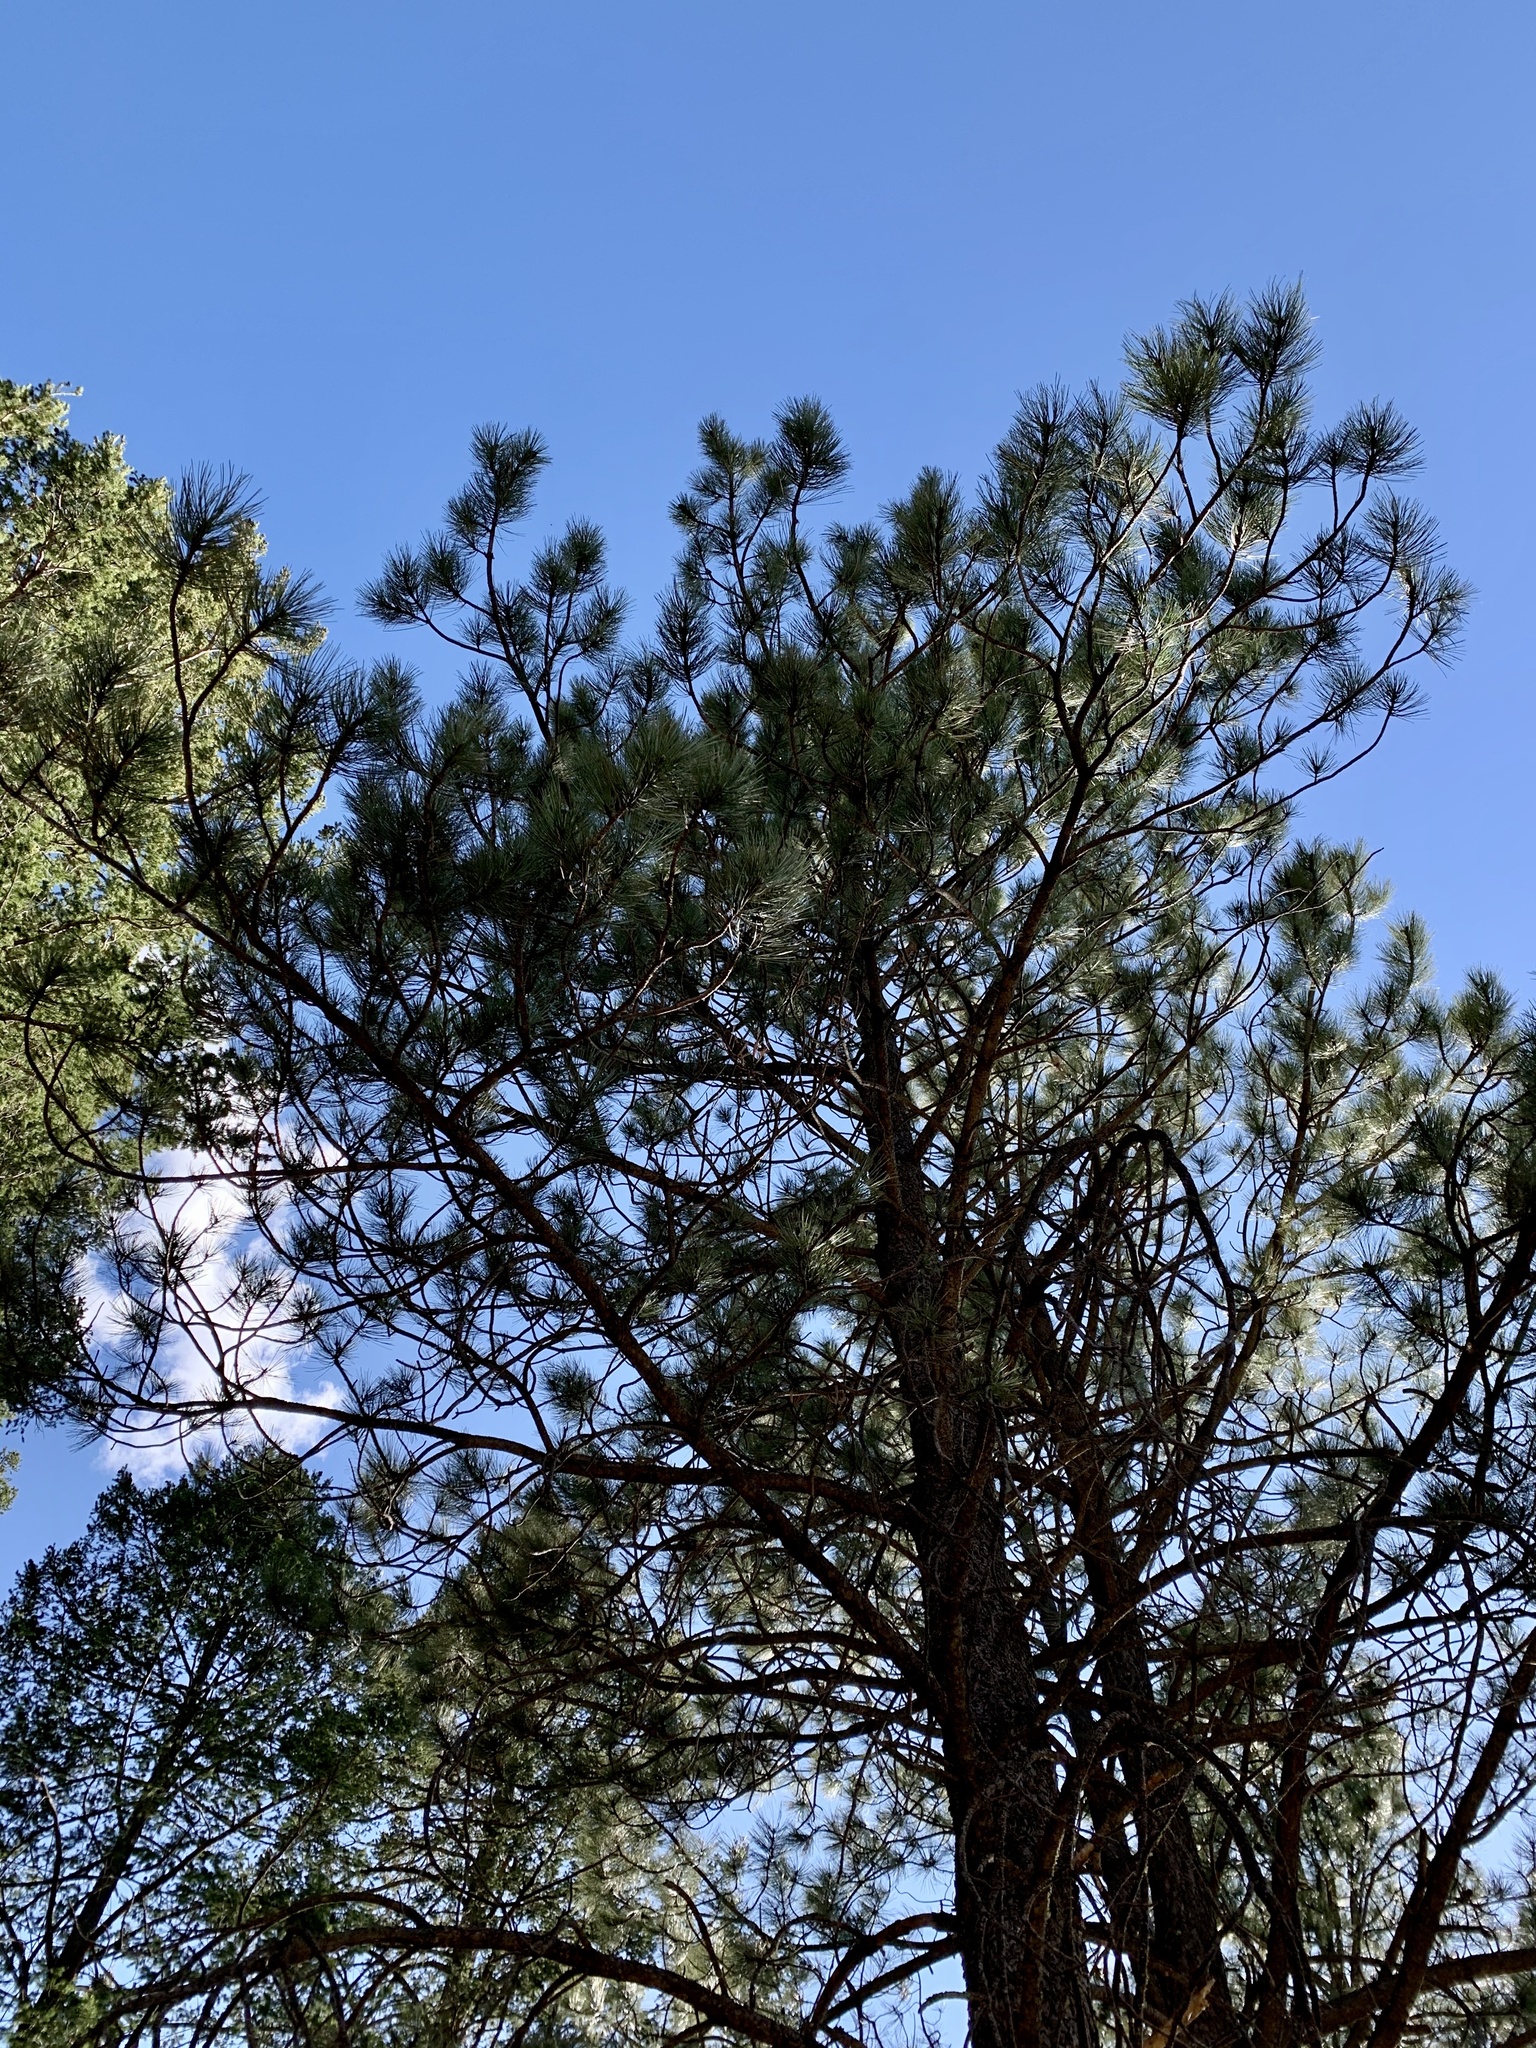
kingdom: Plantae
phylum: Tracheophyta
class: Pinopsida
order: Pinales
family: Pinaceae
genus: Pinus
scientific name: Pinus ponderosa
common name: Western yellow-pine
